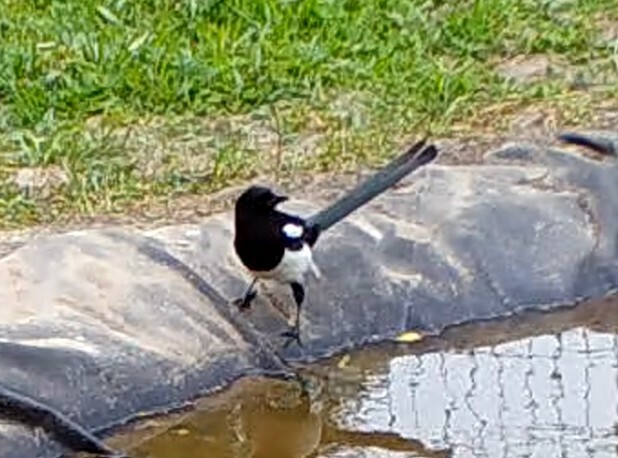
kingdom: Animalia
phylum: Chordata
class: Aves
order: Passeriformes
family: Corvidae
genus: Pica
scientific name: Pica pica
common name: Eurasian magpie
